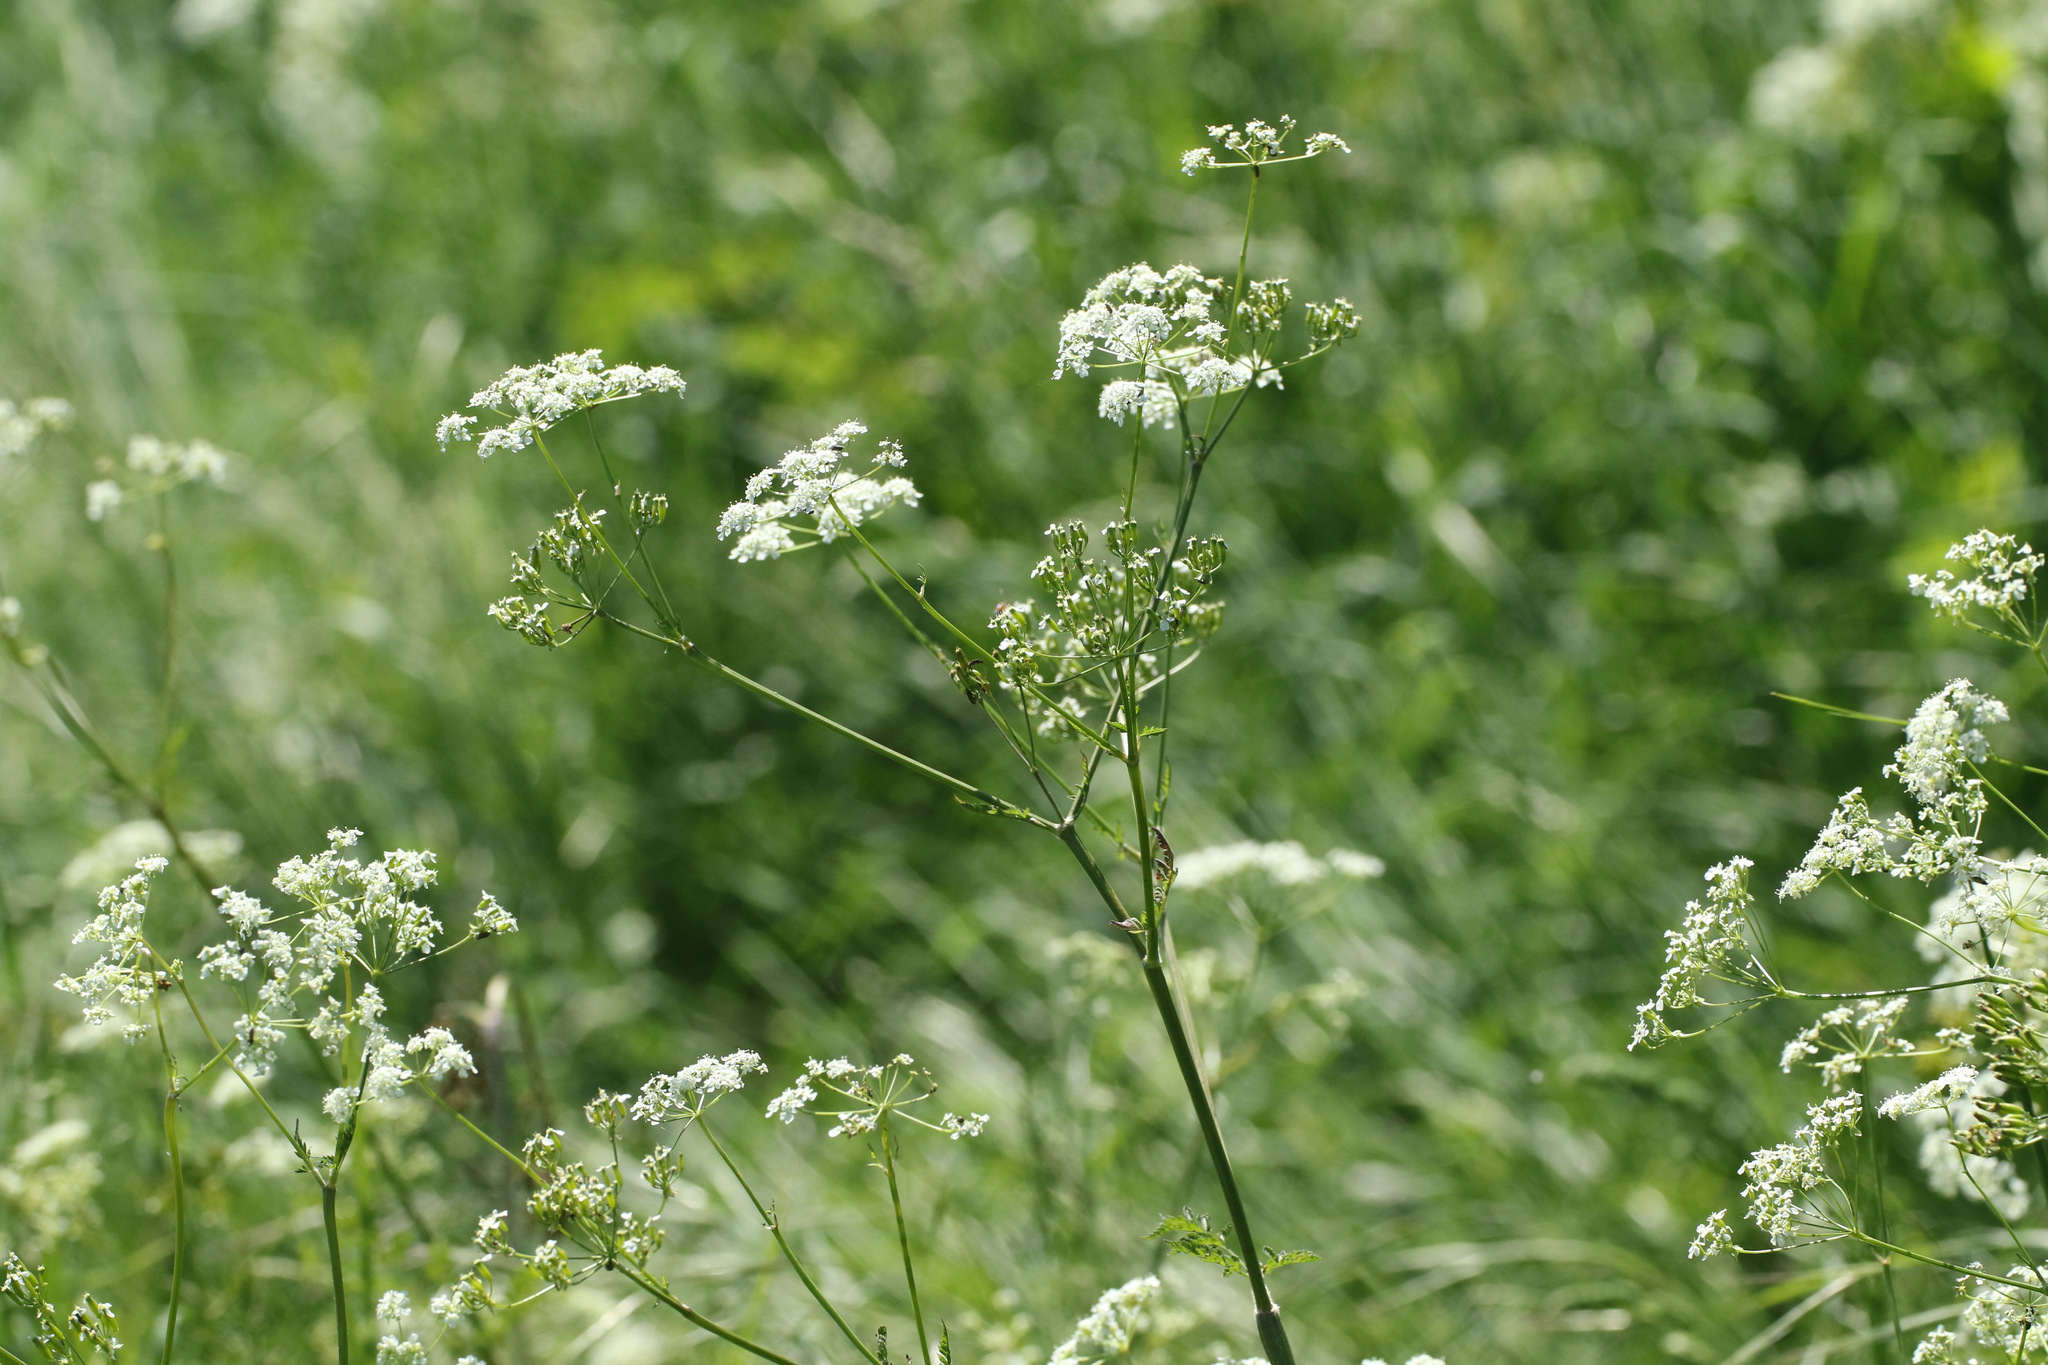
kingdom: Plantae
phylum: Tracheophyta
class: Magnoliopsida
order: Apiales
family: Apiaceae
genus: Anthriscus
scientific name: Anthriscus sylvestris
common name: Cow parsley
